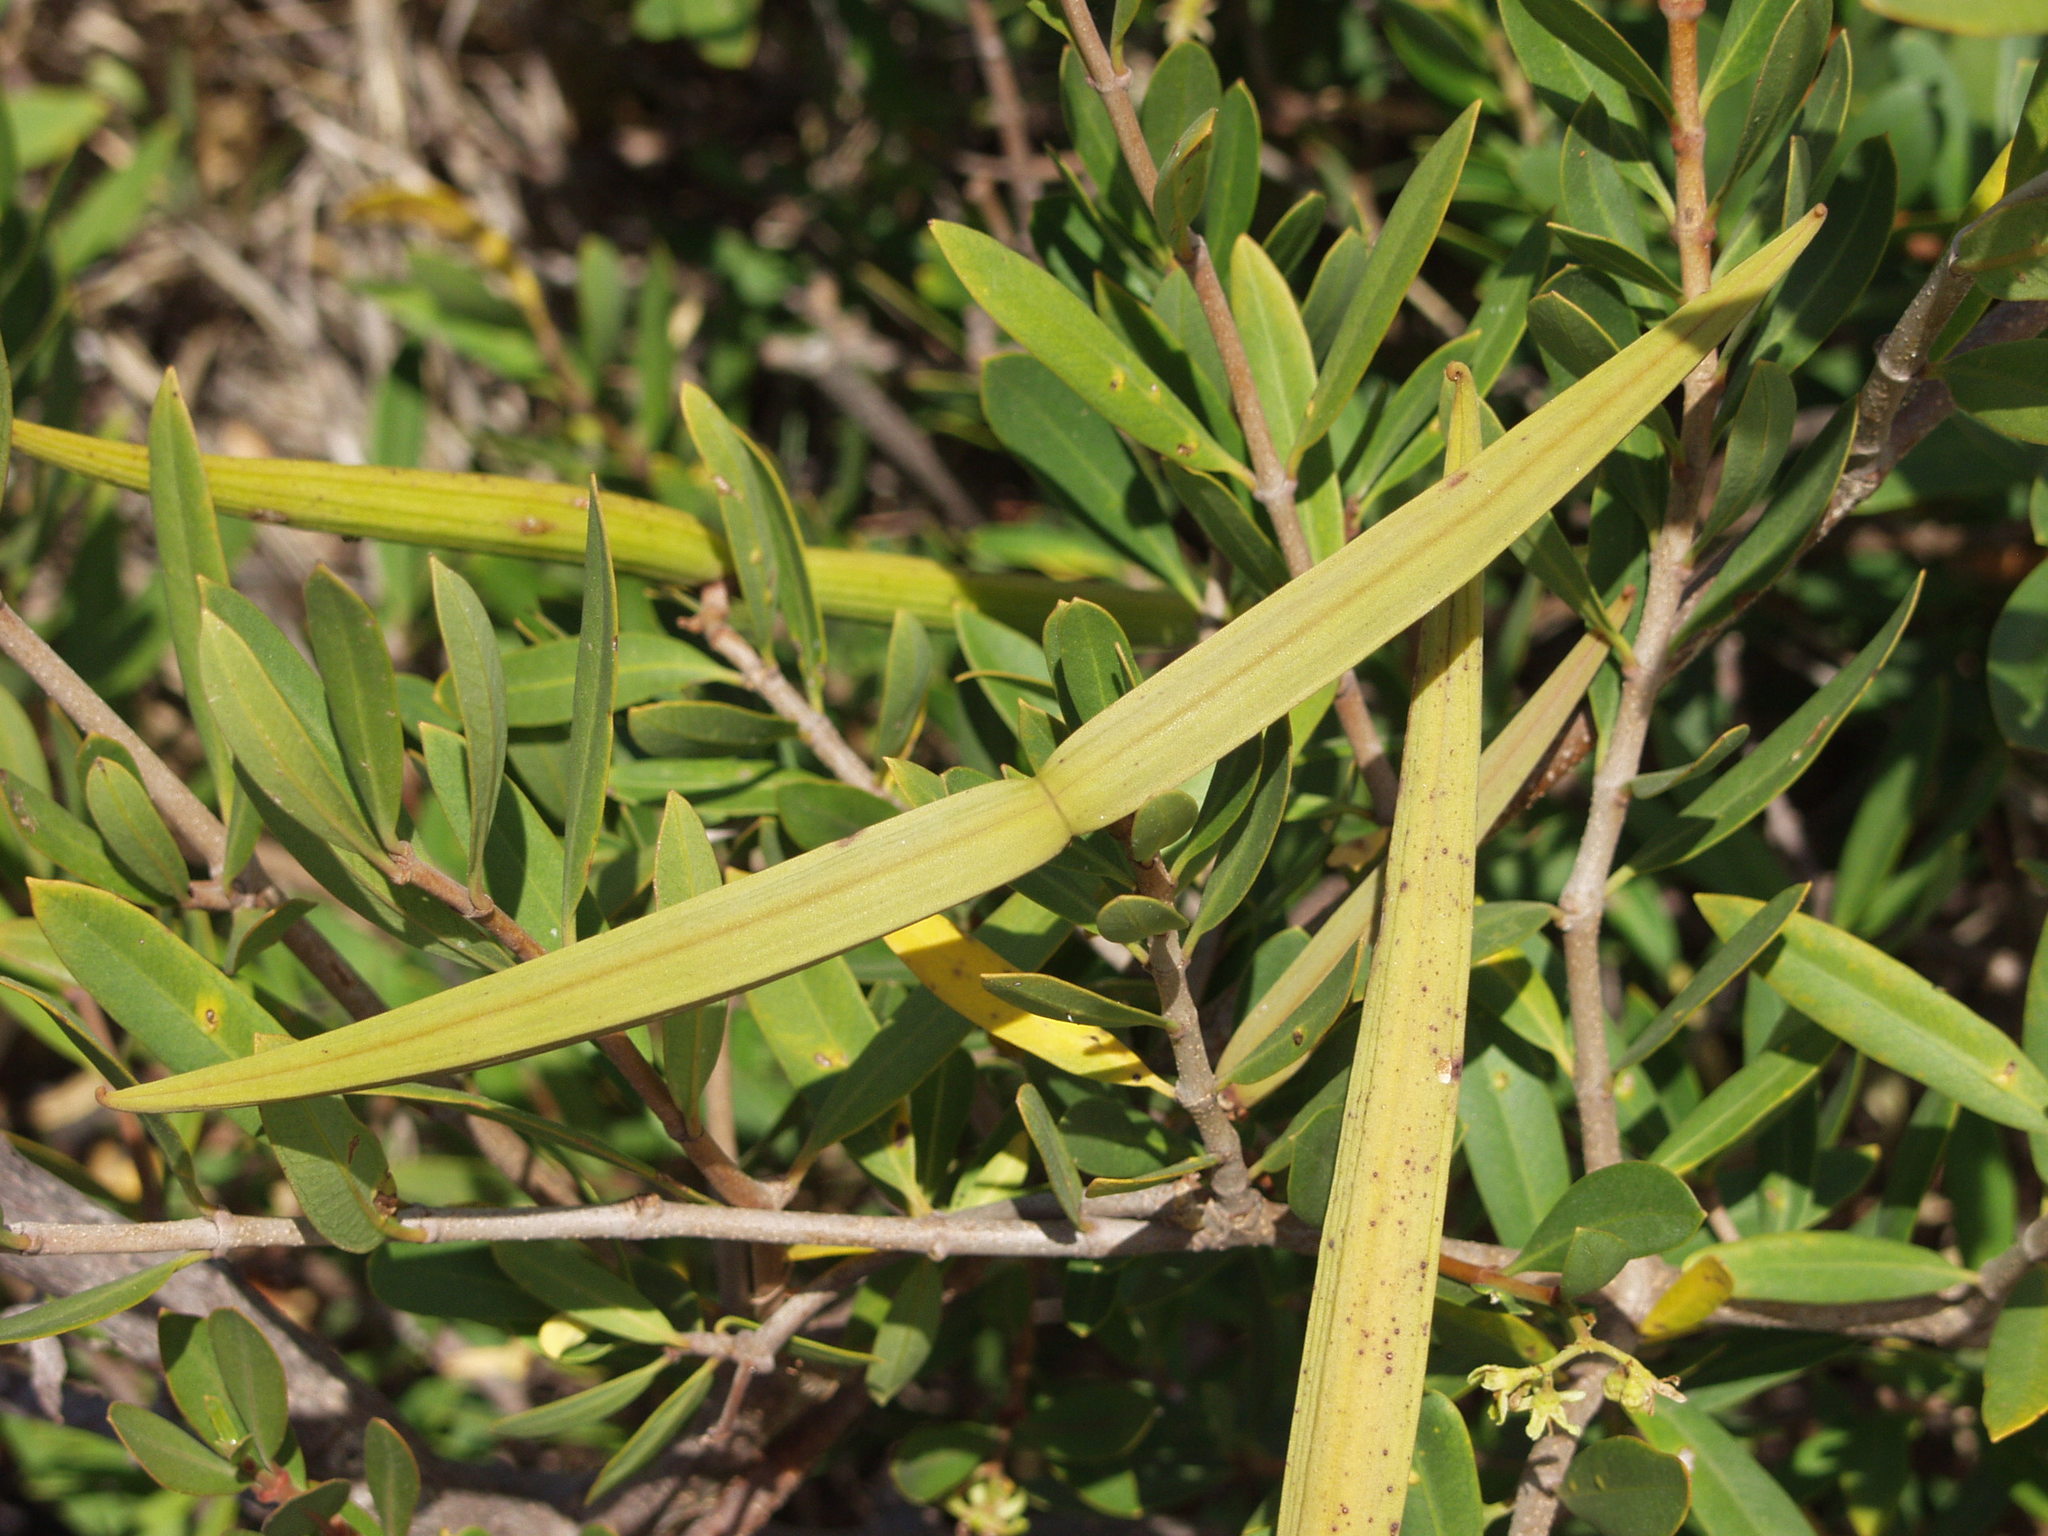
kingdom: Plantae
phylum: Tracheophyta
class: Magnoliopsida
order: Gentianales
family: Apocynaceae
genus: Periploca
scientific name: Periploca laevigata
